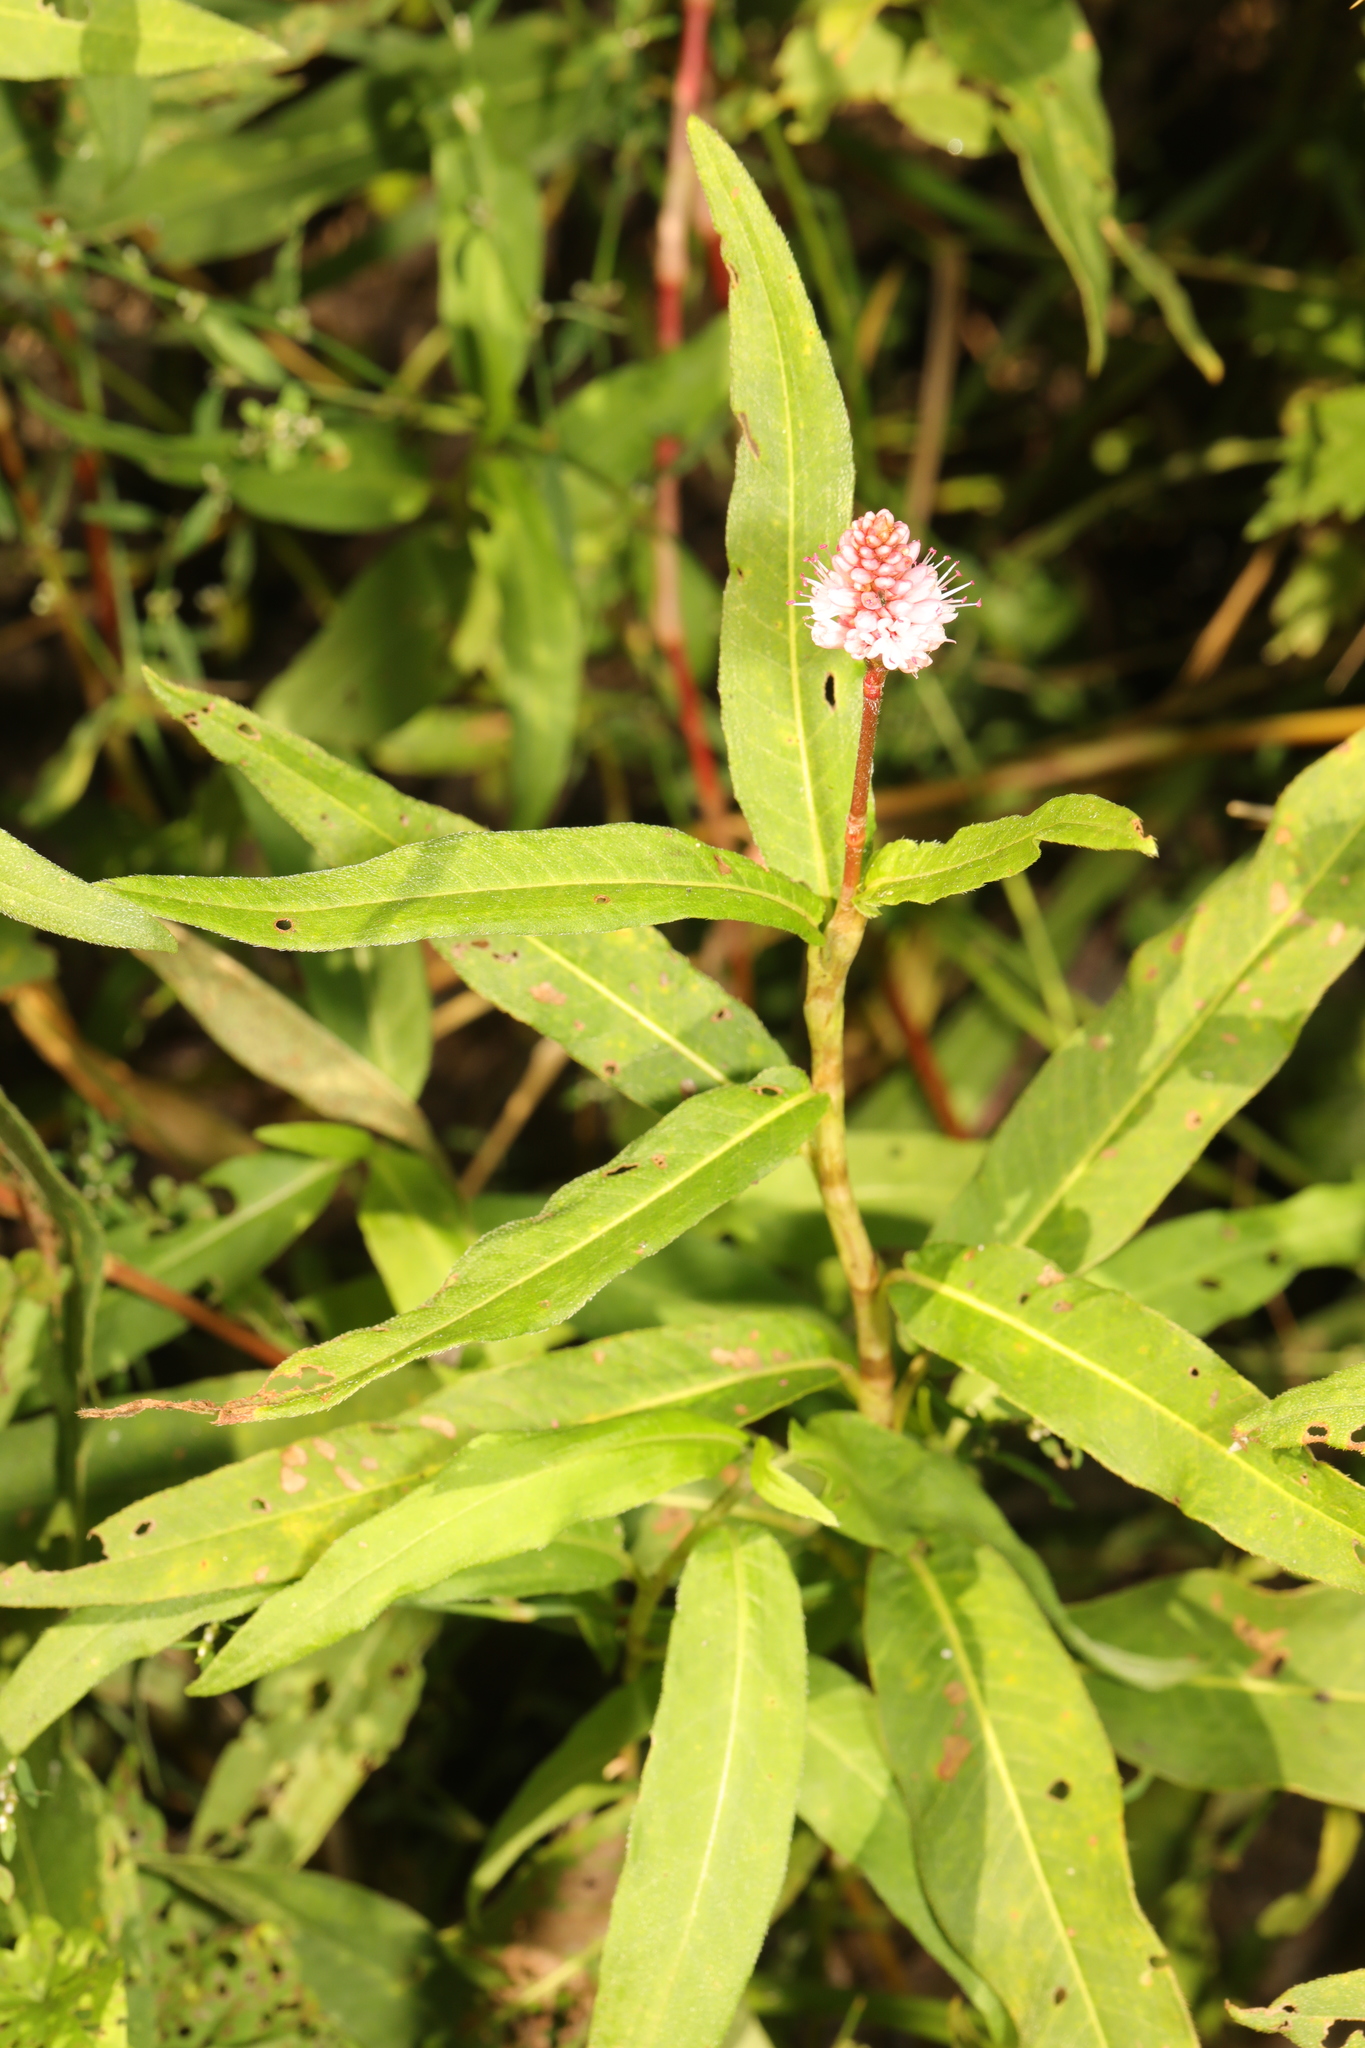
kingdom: Plantae
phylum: Tracheophyta
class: Magnoliopsida
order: Caryophyllales
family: Polygonaceae
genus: Persicaria
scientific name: Persicaria amphibia
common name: Amphibious bistort
